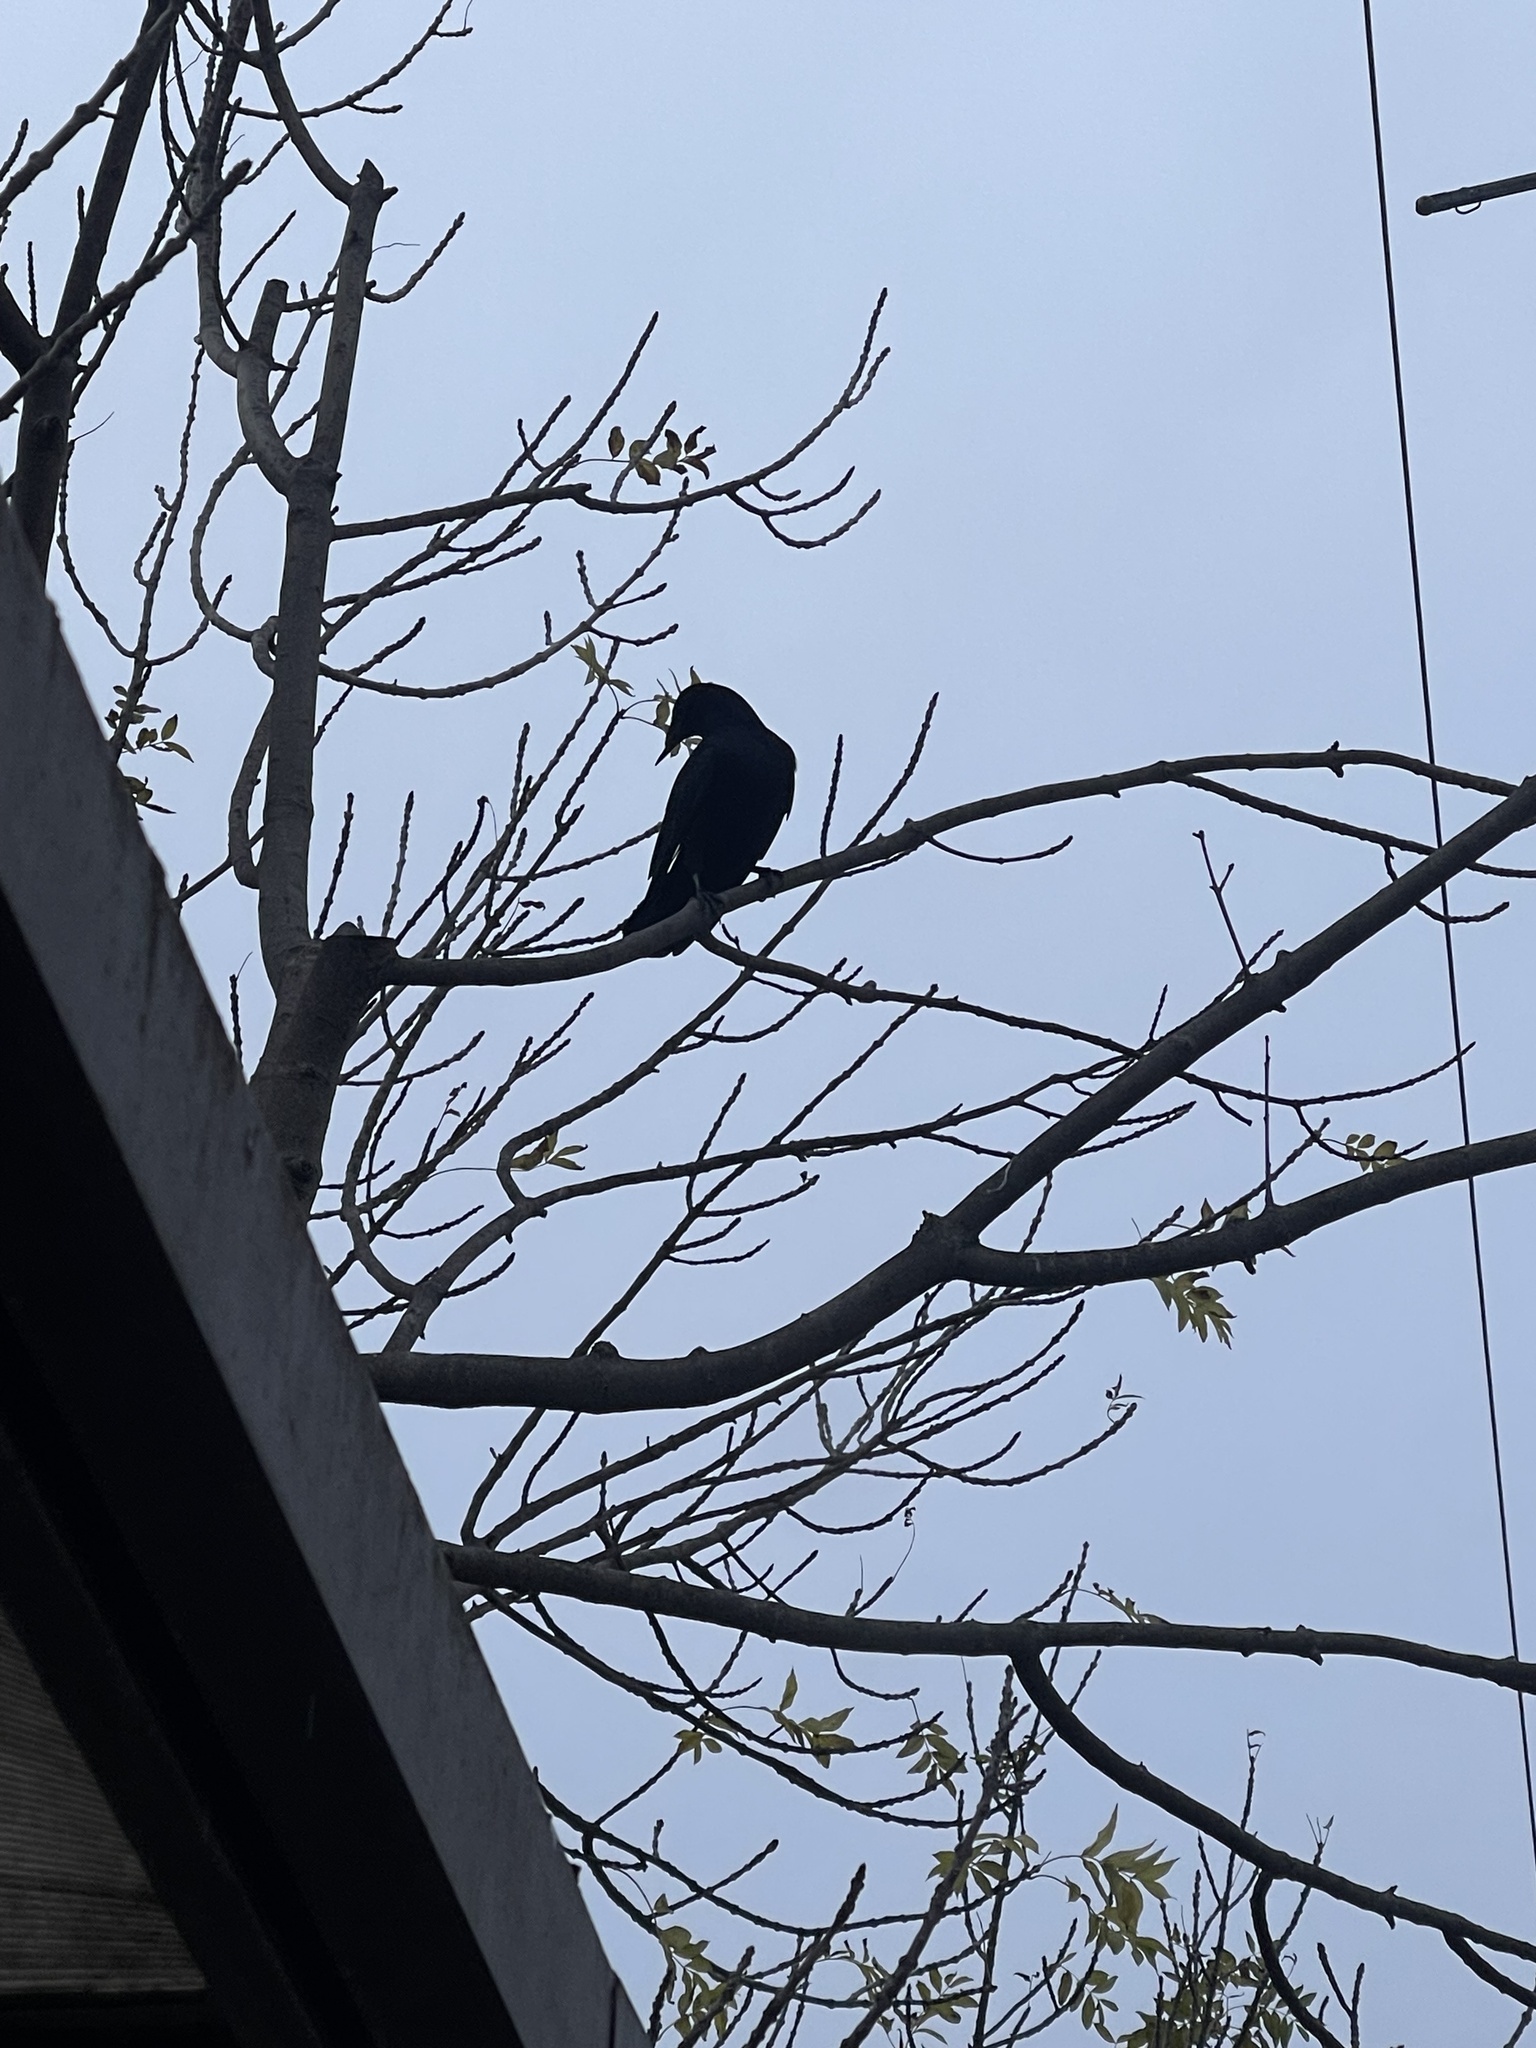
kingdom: Animalia
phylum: Chordata
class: Aves
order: Passeriformes
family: Corvidae
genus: Corvus
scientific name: Corvus brachyrhynchos
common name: American crow
